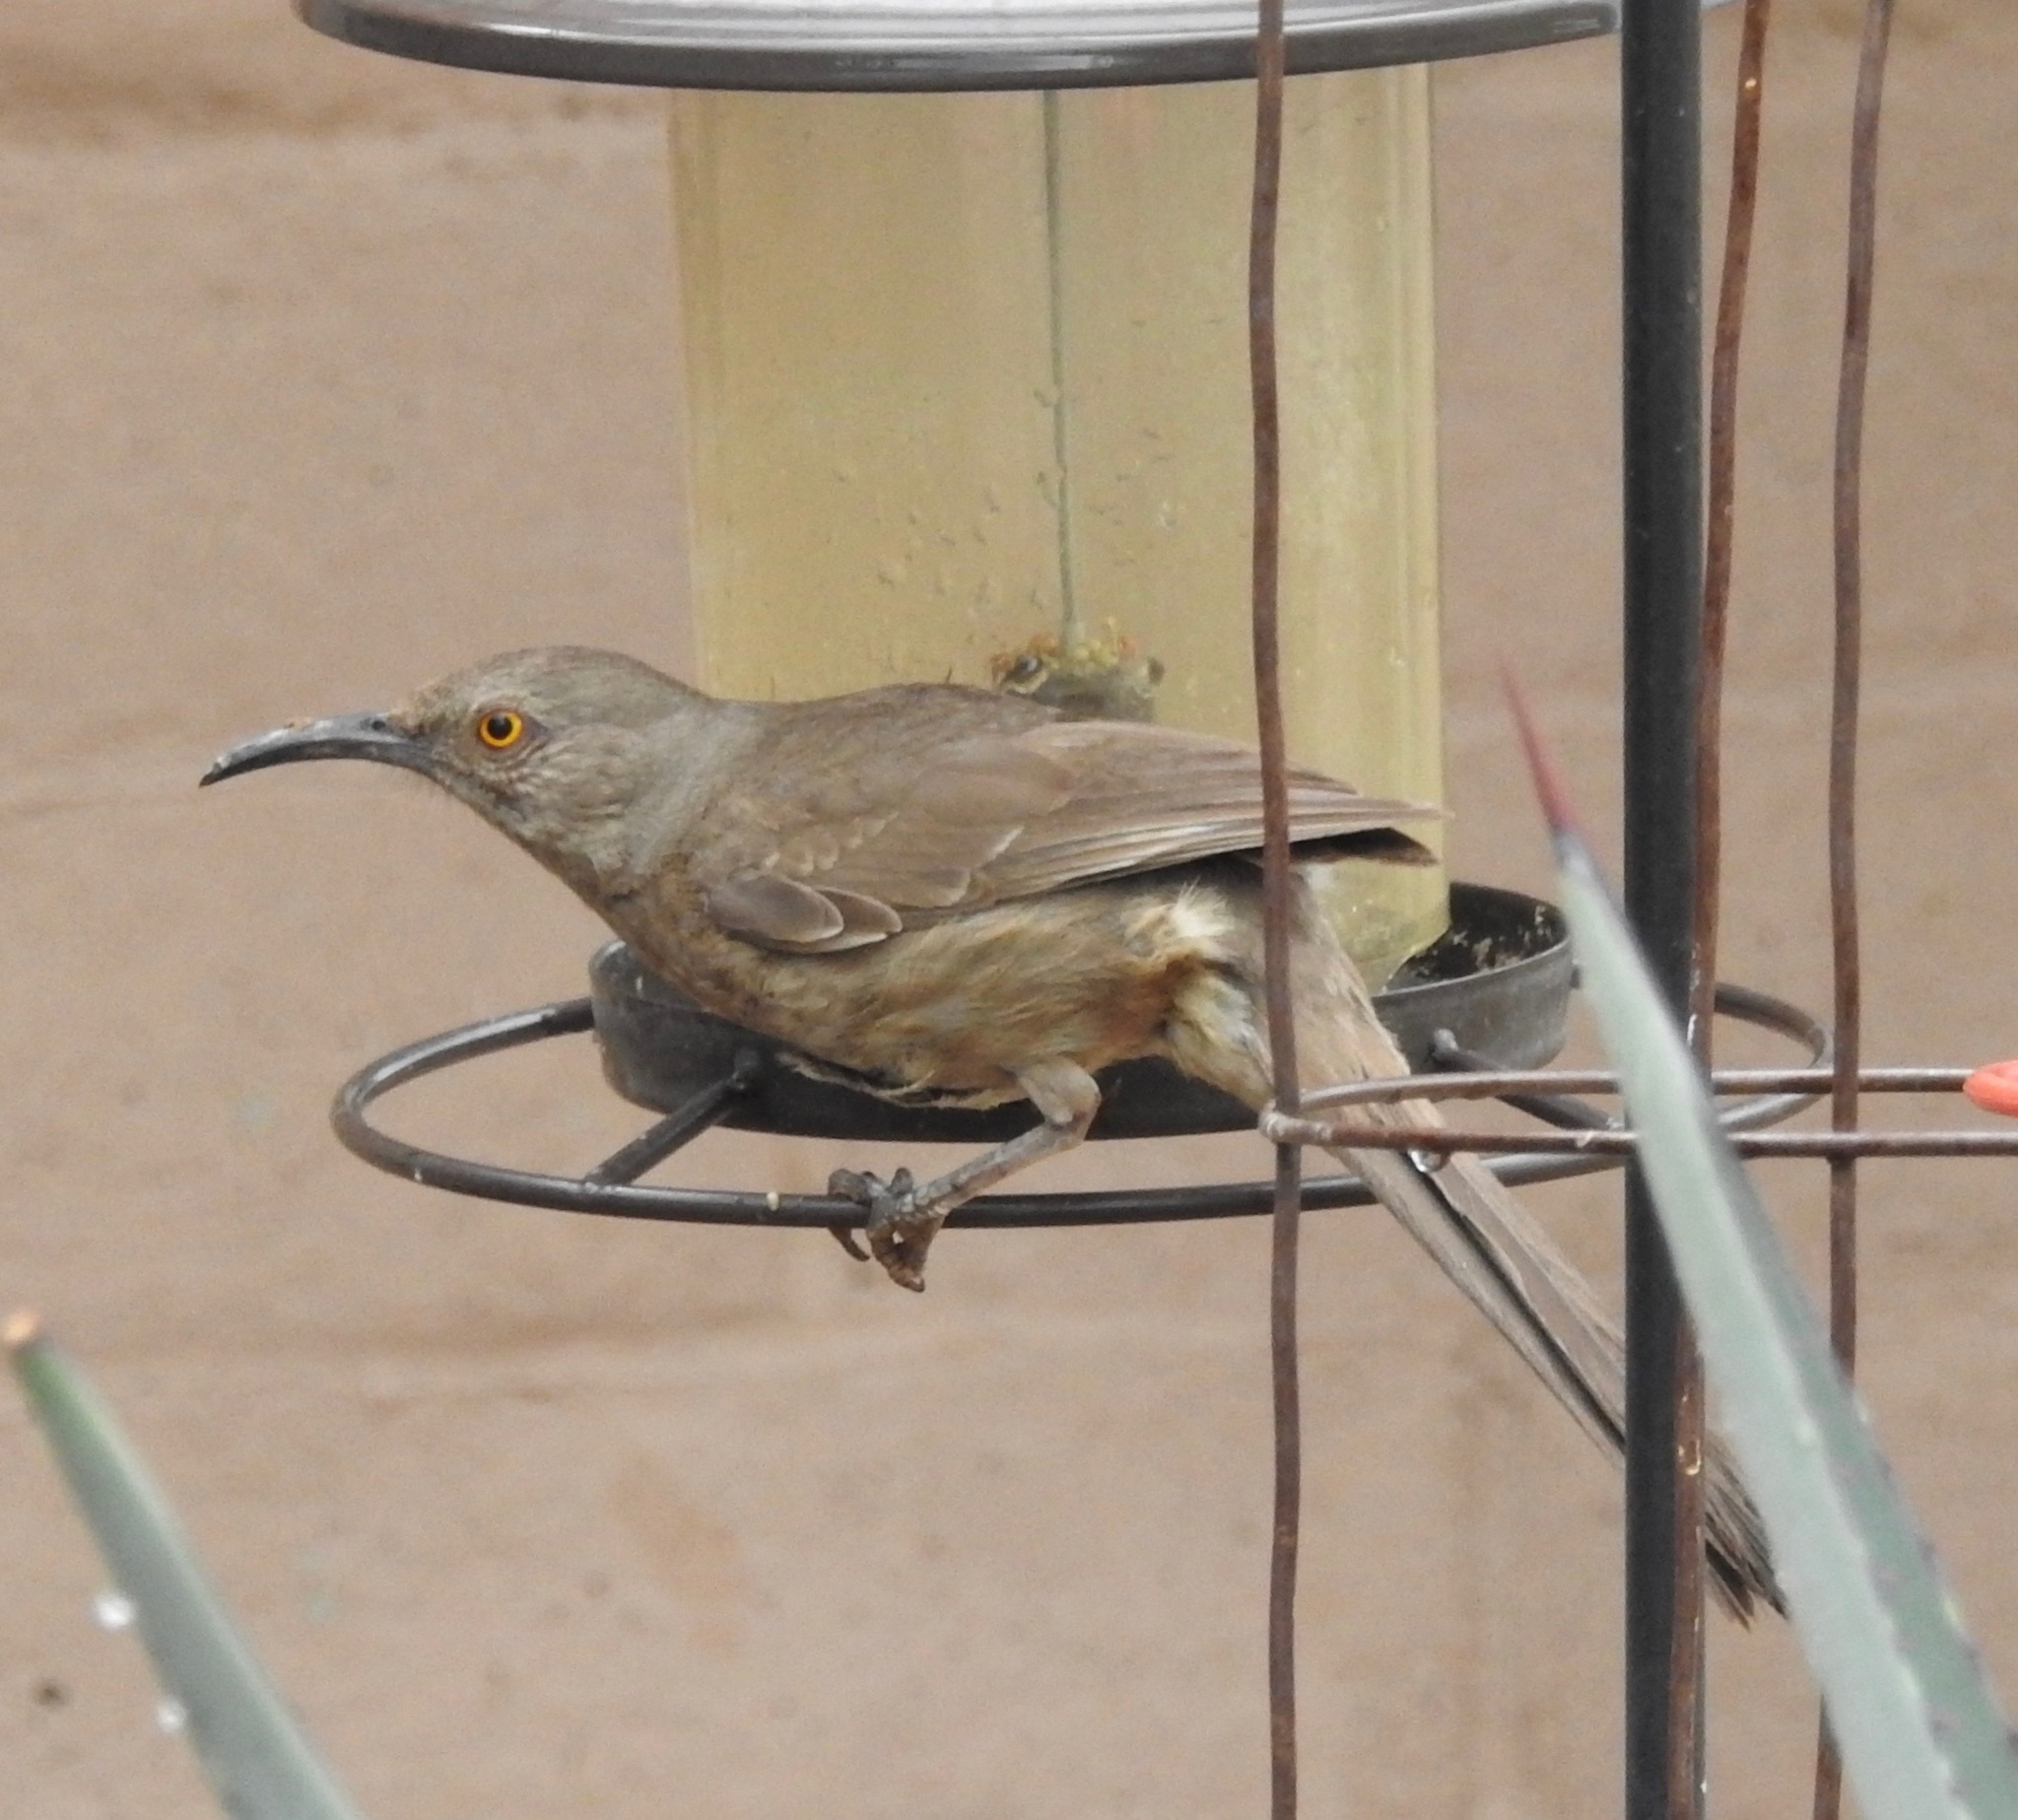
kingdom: Animalia
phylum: Chordata
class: Aves
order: Passeriformes
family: Mimidae
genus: Toxostoma
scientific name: Toxostoma curvirostre
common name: Curve-billed thrasher
